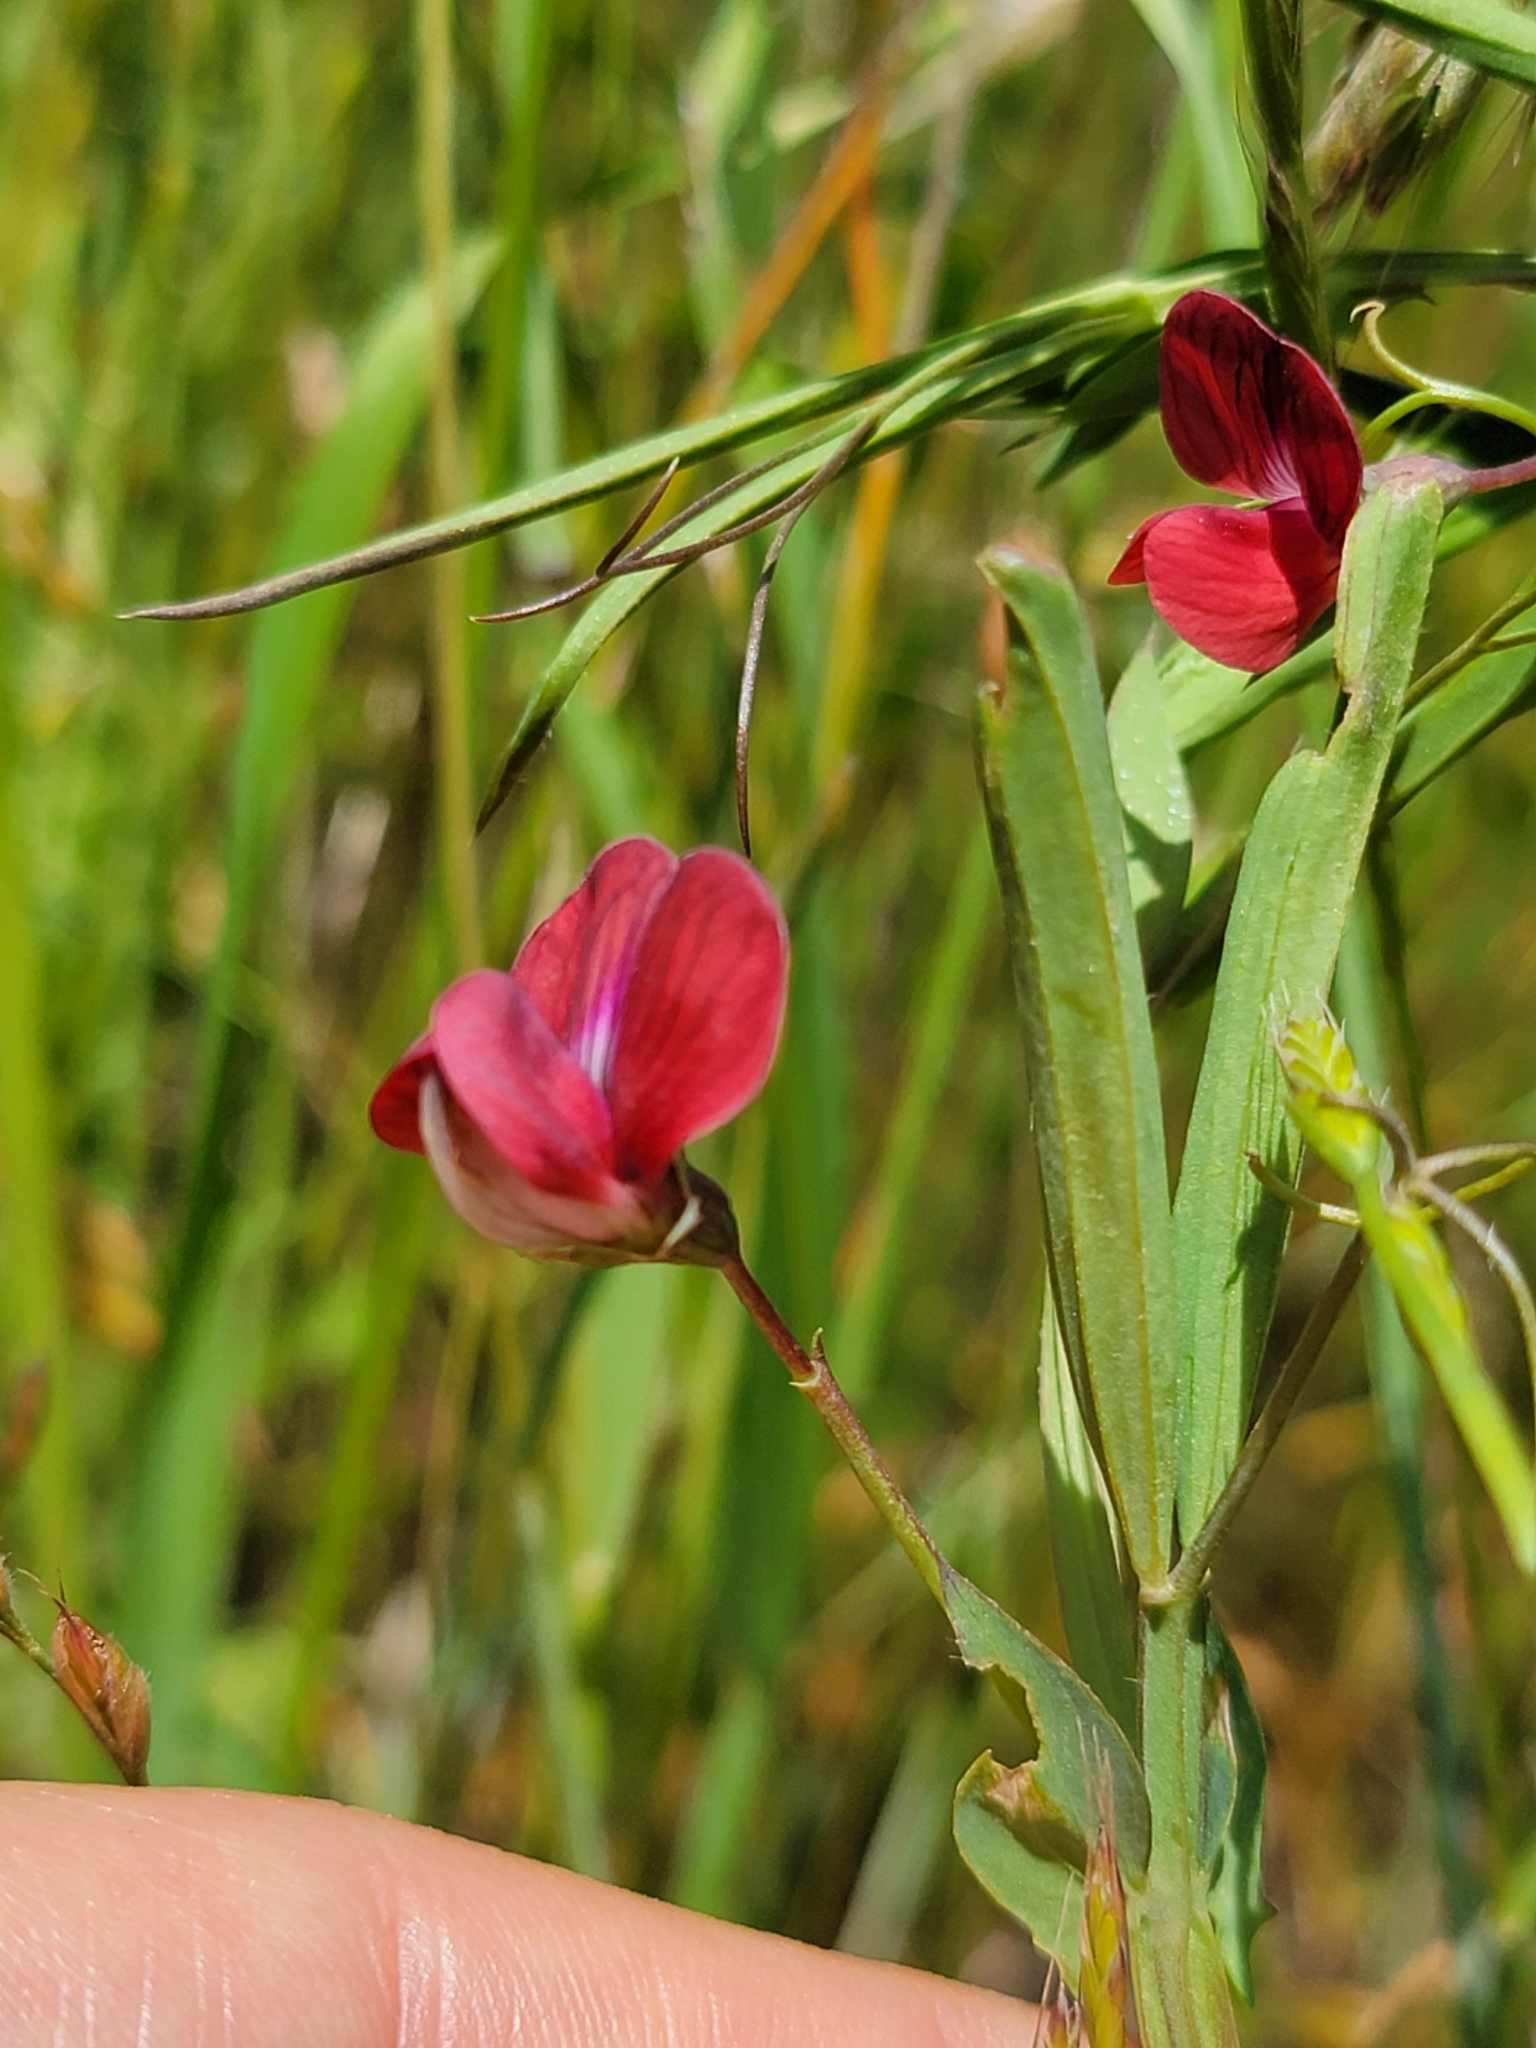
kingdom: Plantae
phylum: Tracheophyta
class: Magnoliopsida
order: Fabales
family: Fabaceae
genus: Lathyrus
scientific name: Lathyrus cicera
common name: Red vetchling
